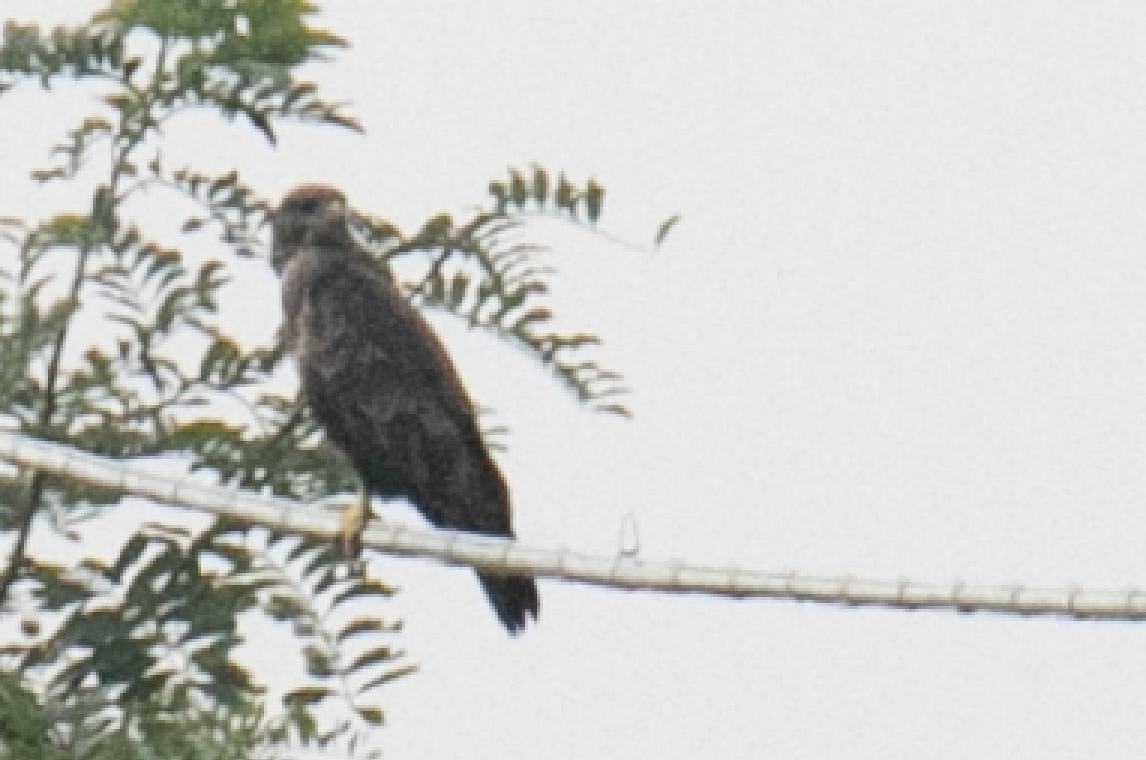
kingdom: Animalia
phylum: Chordata
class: Aves
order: Accipitriformes
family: Accipitridae
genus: Buteo
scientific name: Buteo buteo
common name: Common buzzard
